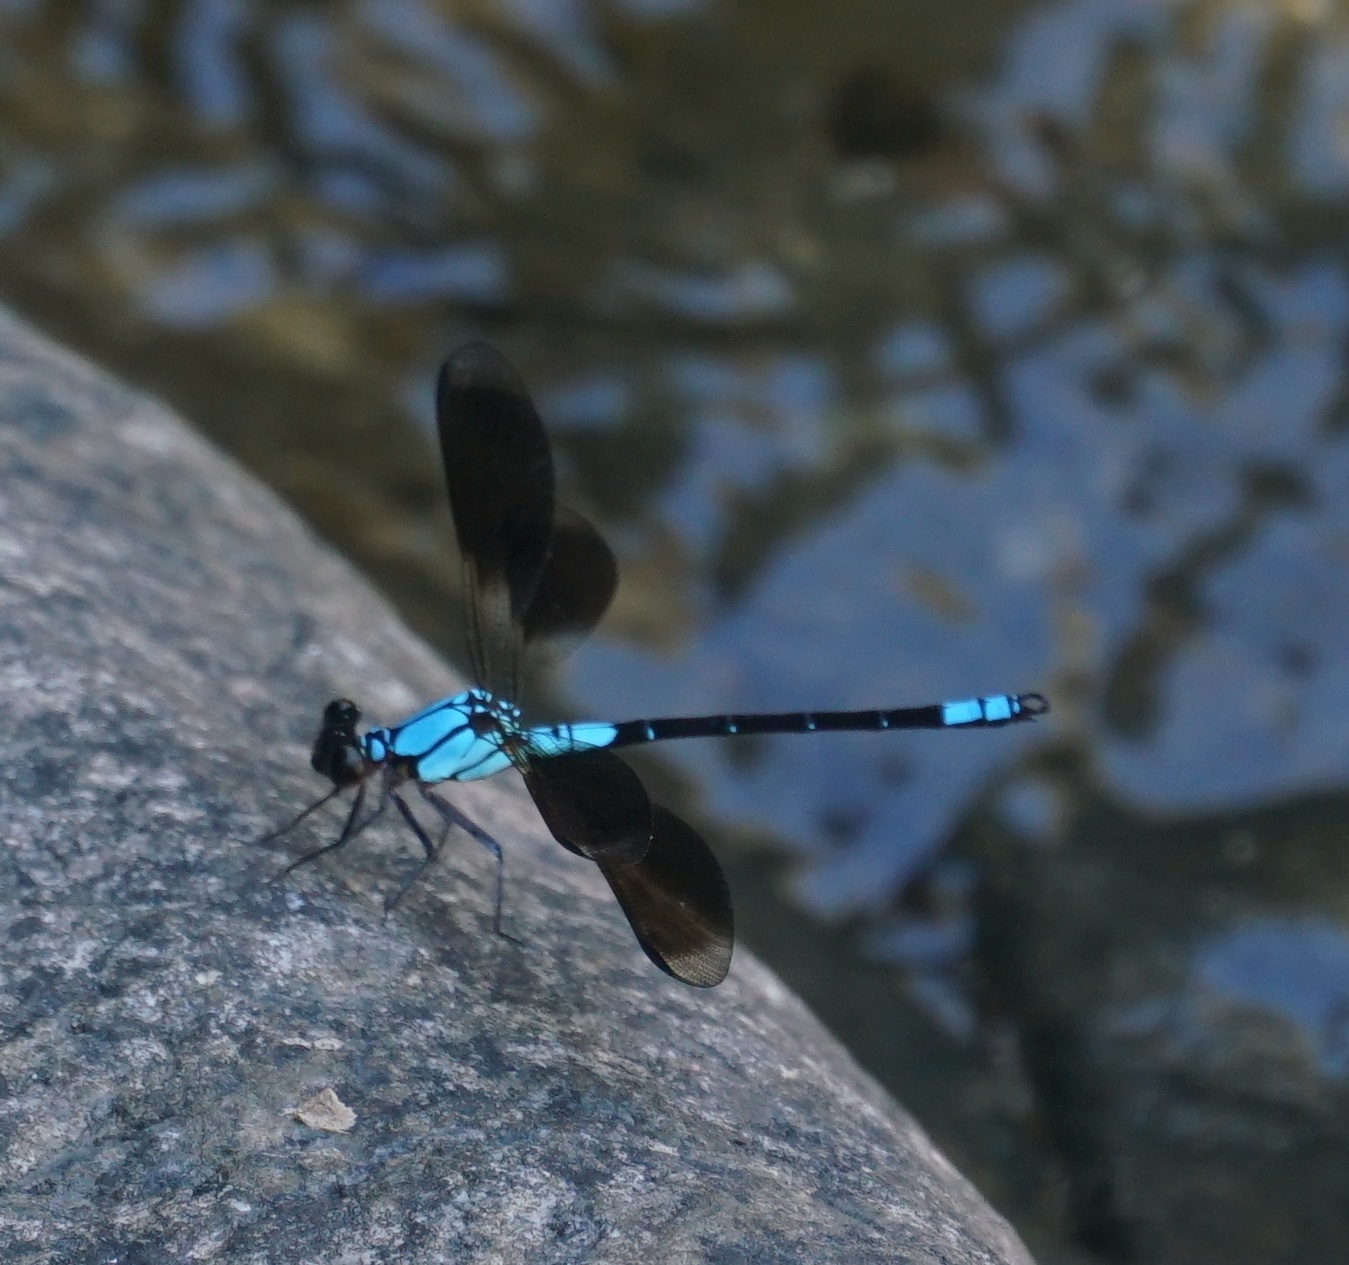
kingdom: Animalia
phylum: Arthropoda
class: Insecta
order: Odonata
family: Lestoideidae
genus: Diphlebia
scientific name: Diphlebia euphoeoides
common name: Tropical rockmaster
